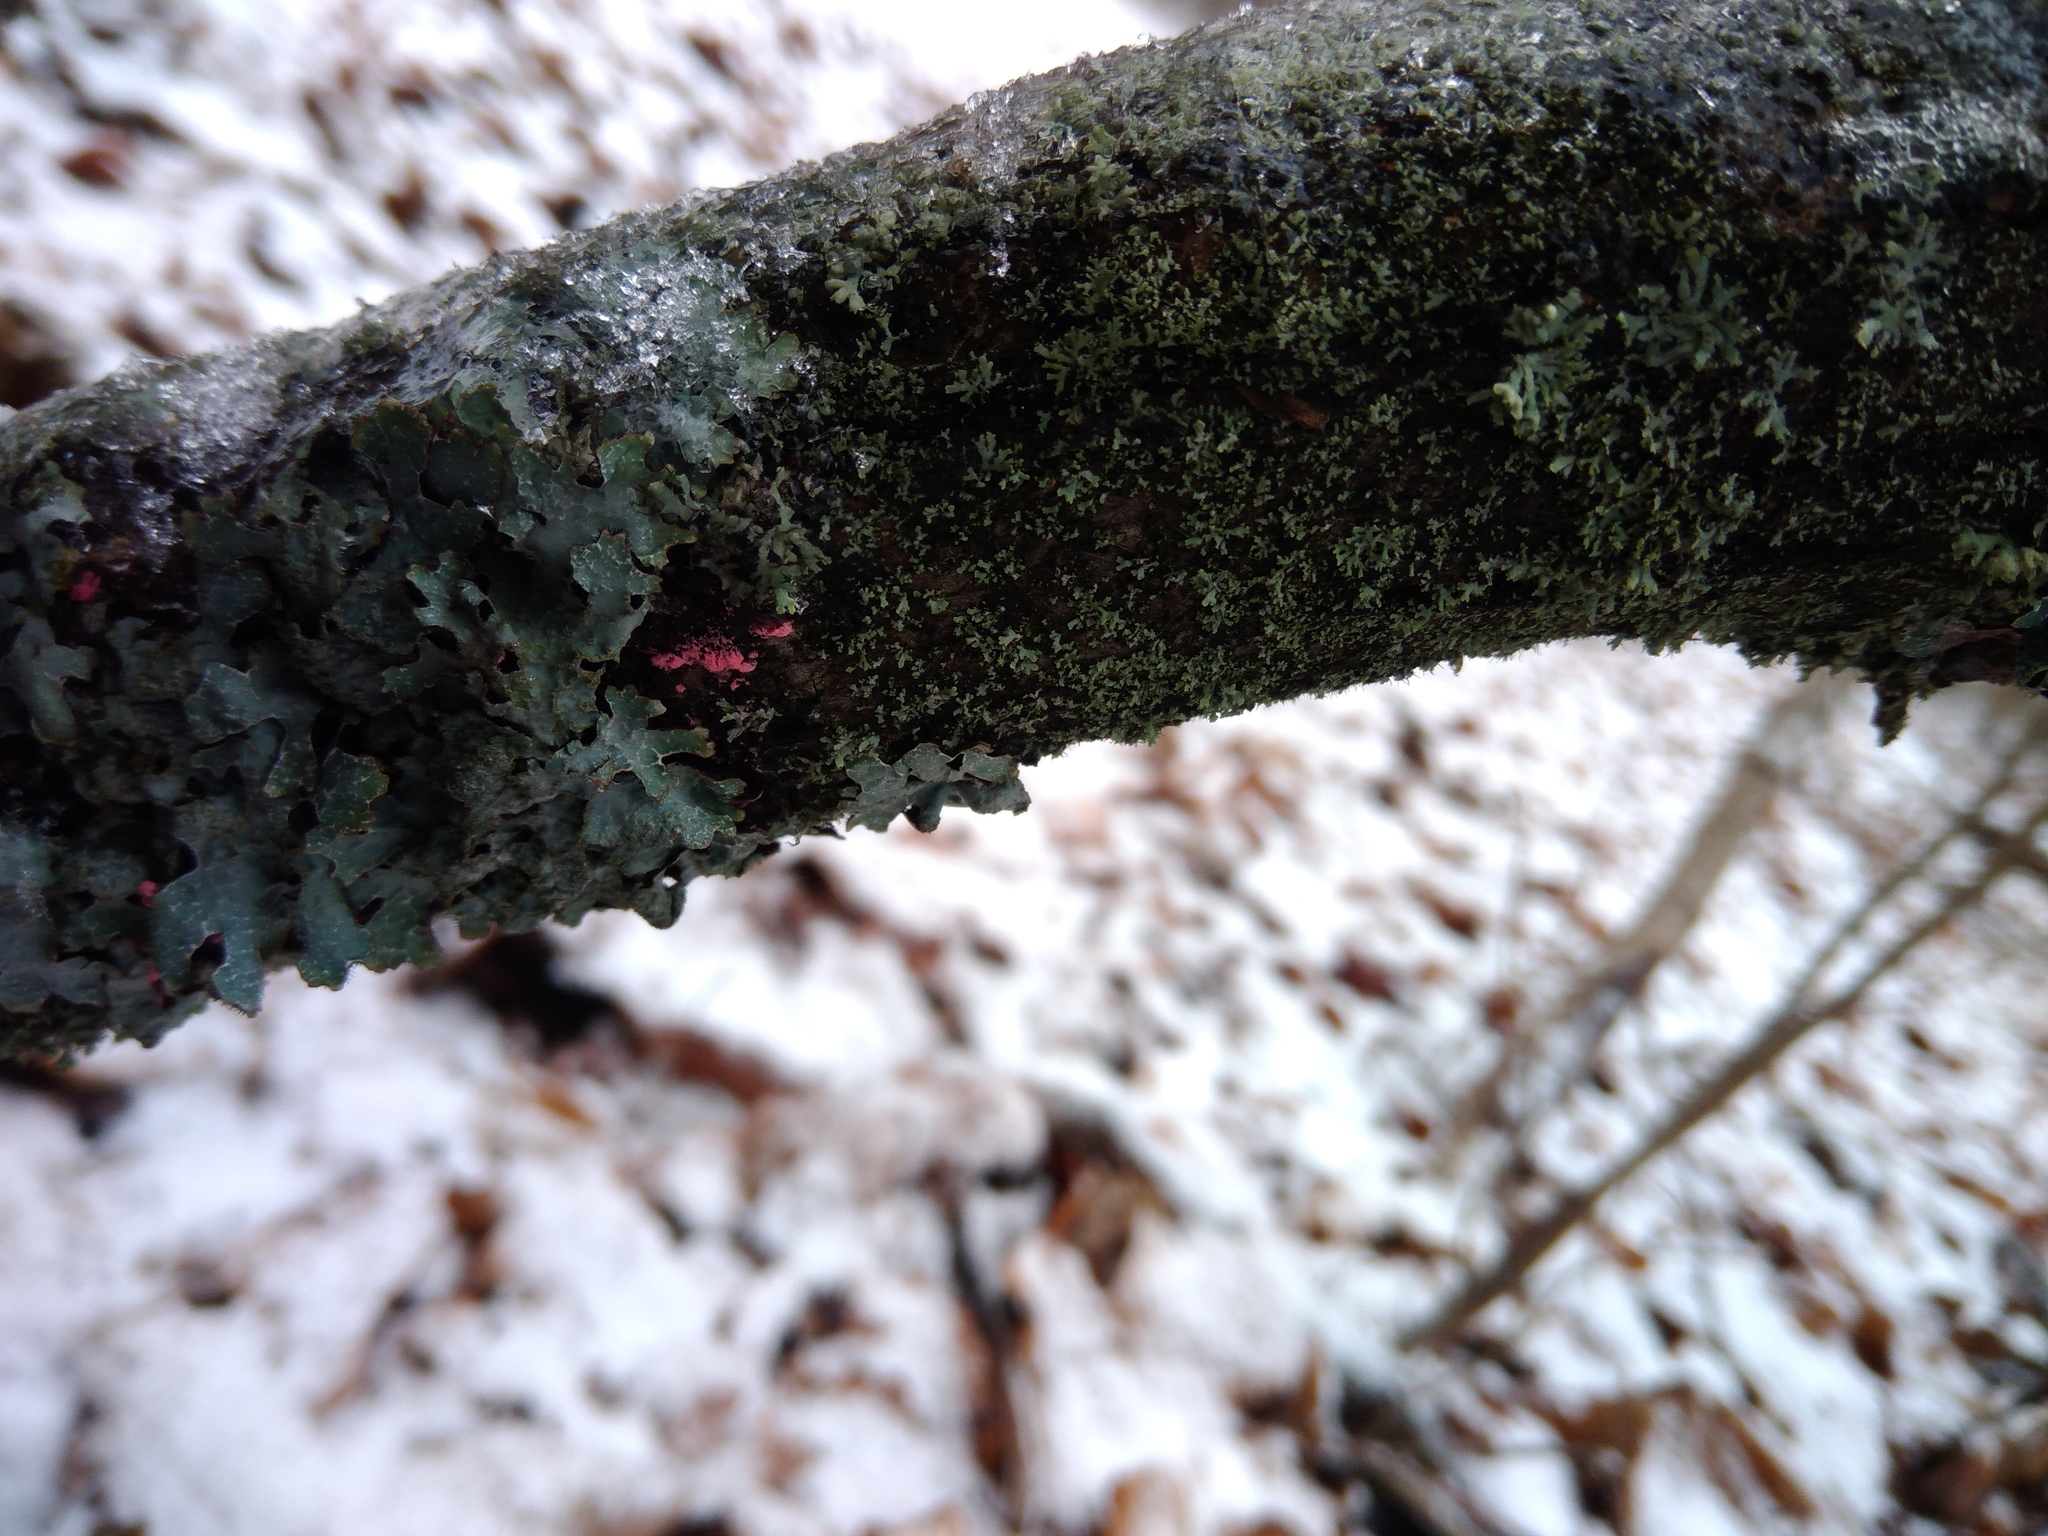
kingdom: Fungi
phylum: Ascomycota
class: Sordariomycetes
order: Hypocreales
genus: Illosporiopsis
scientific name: Illosporiopsis christiansenii
